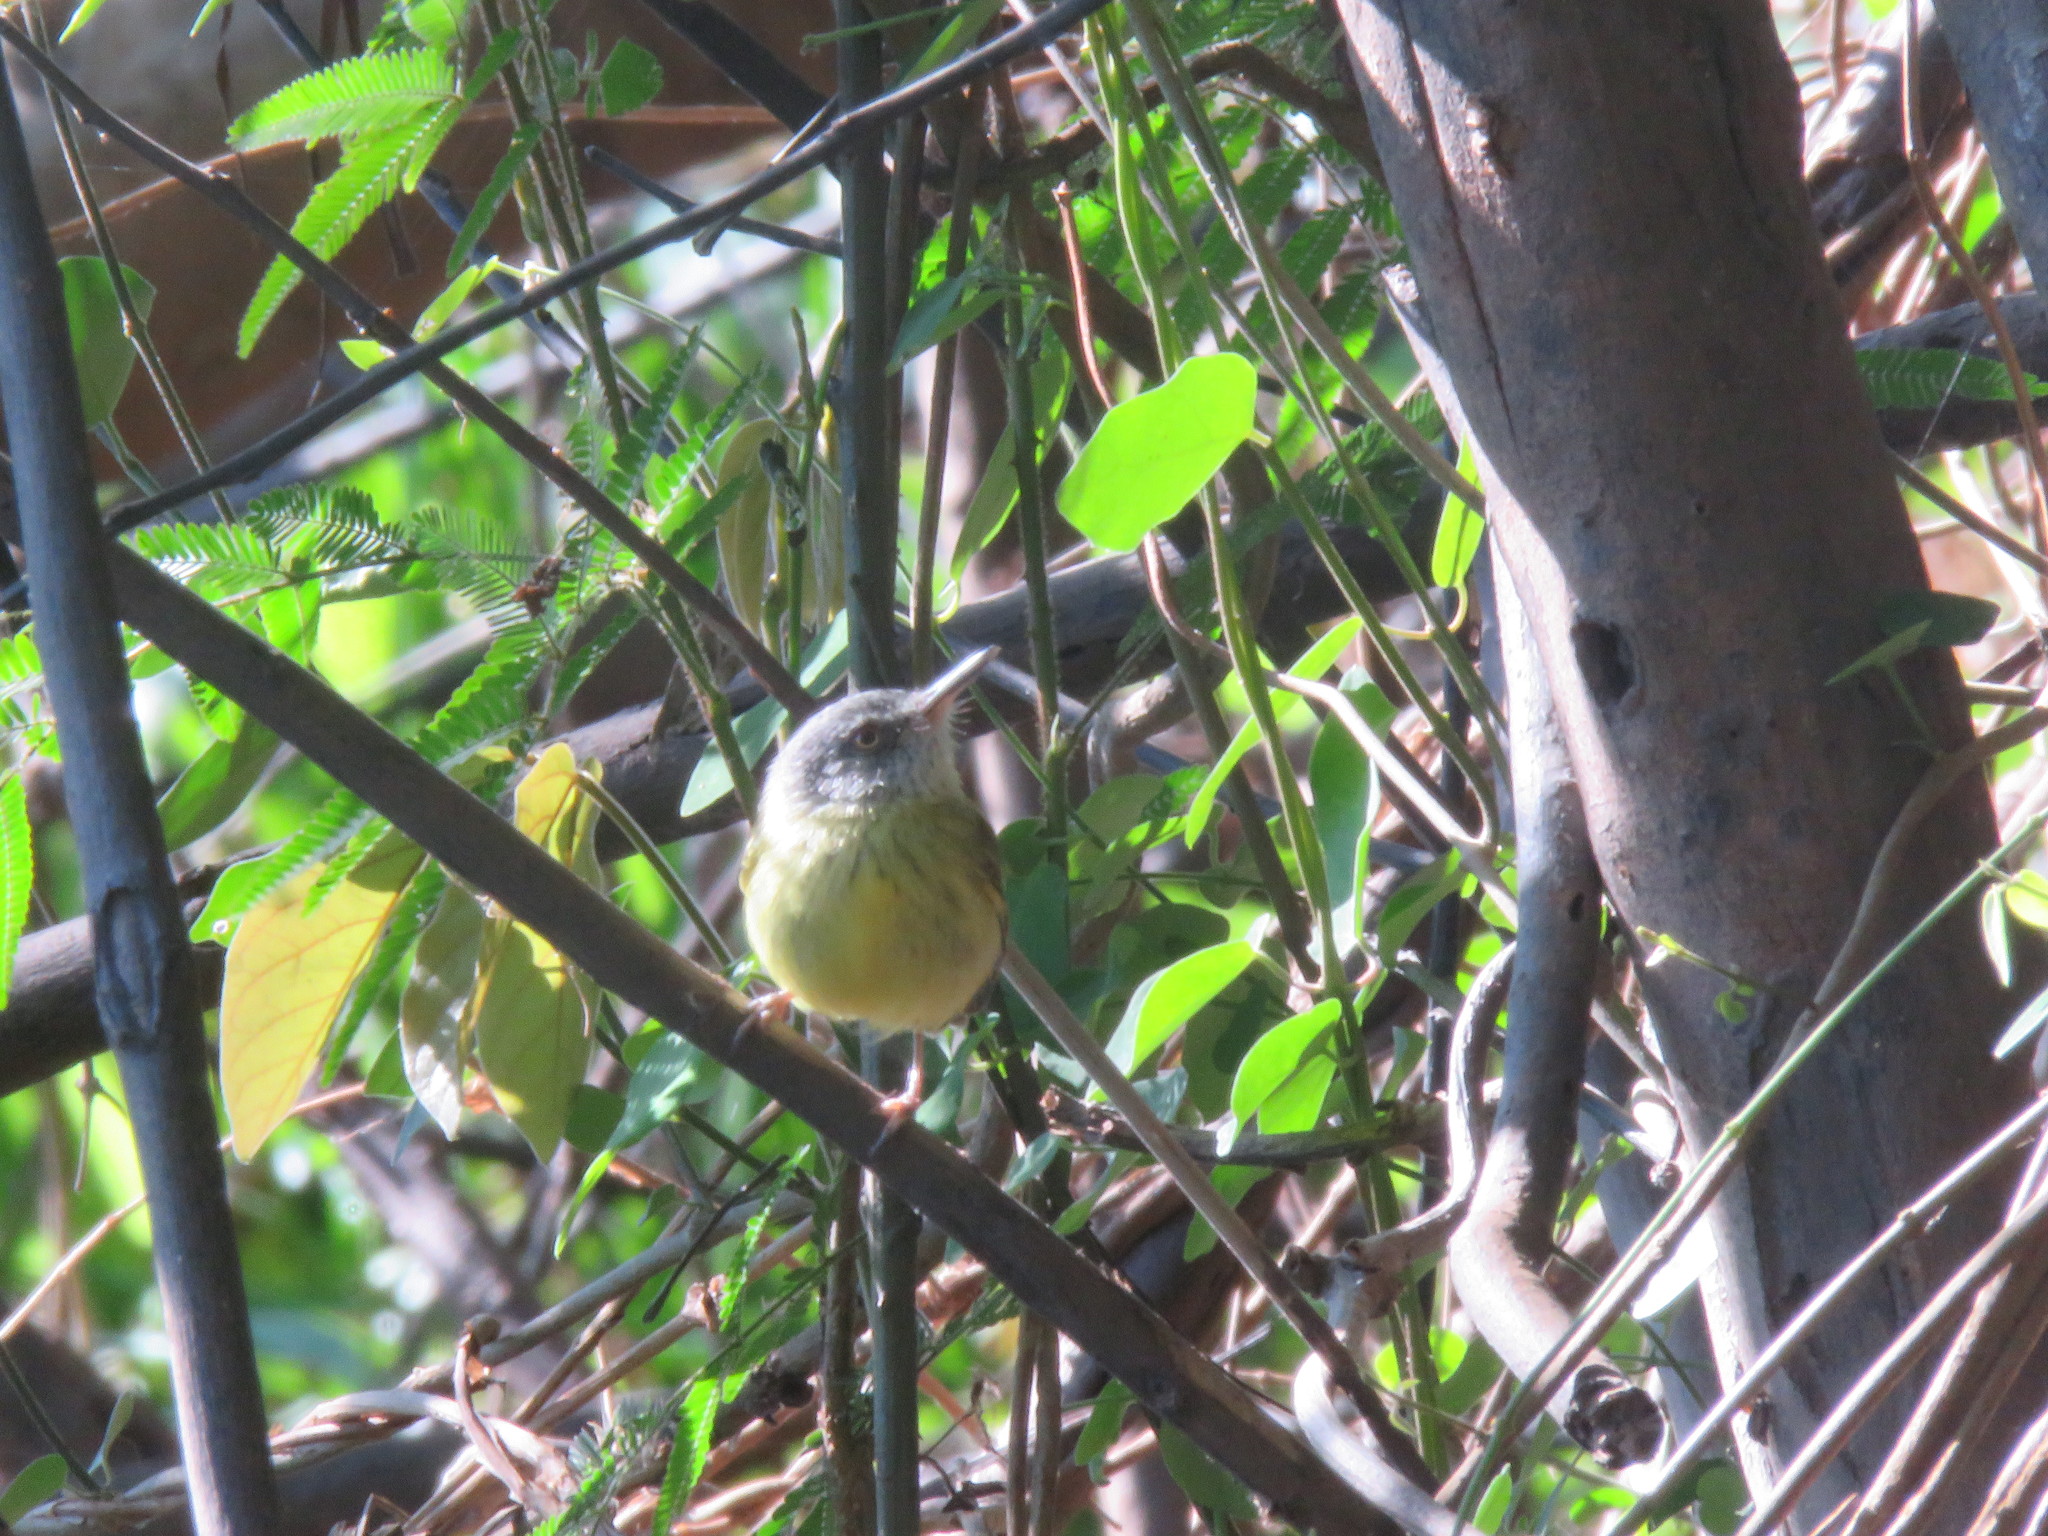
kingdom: Animalia
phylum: Chordata
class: Aves
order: Passeriformes
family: Tyrannidae
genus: Todirostrum
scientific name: Todirostrum maculatum
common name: Spotted tody-flycatcher
